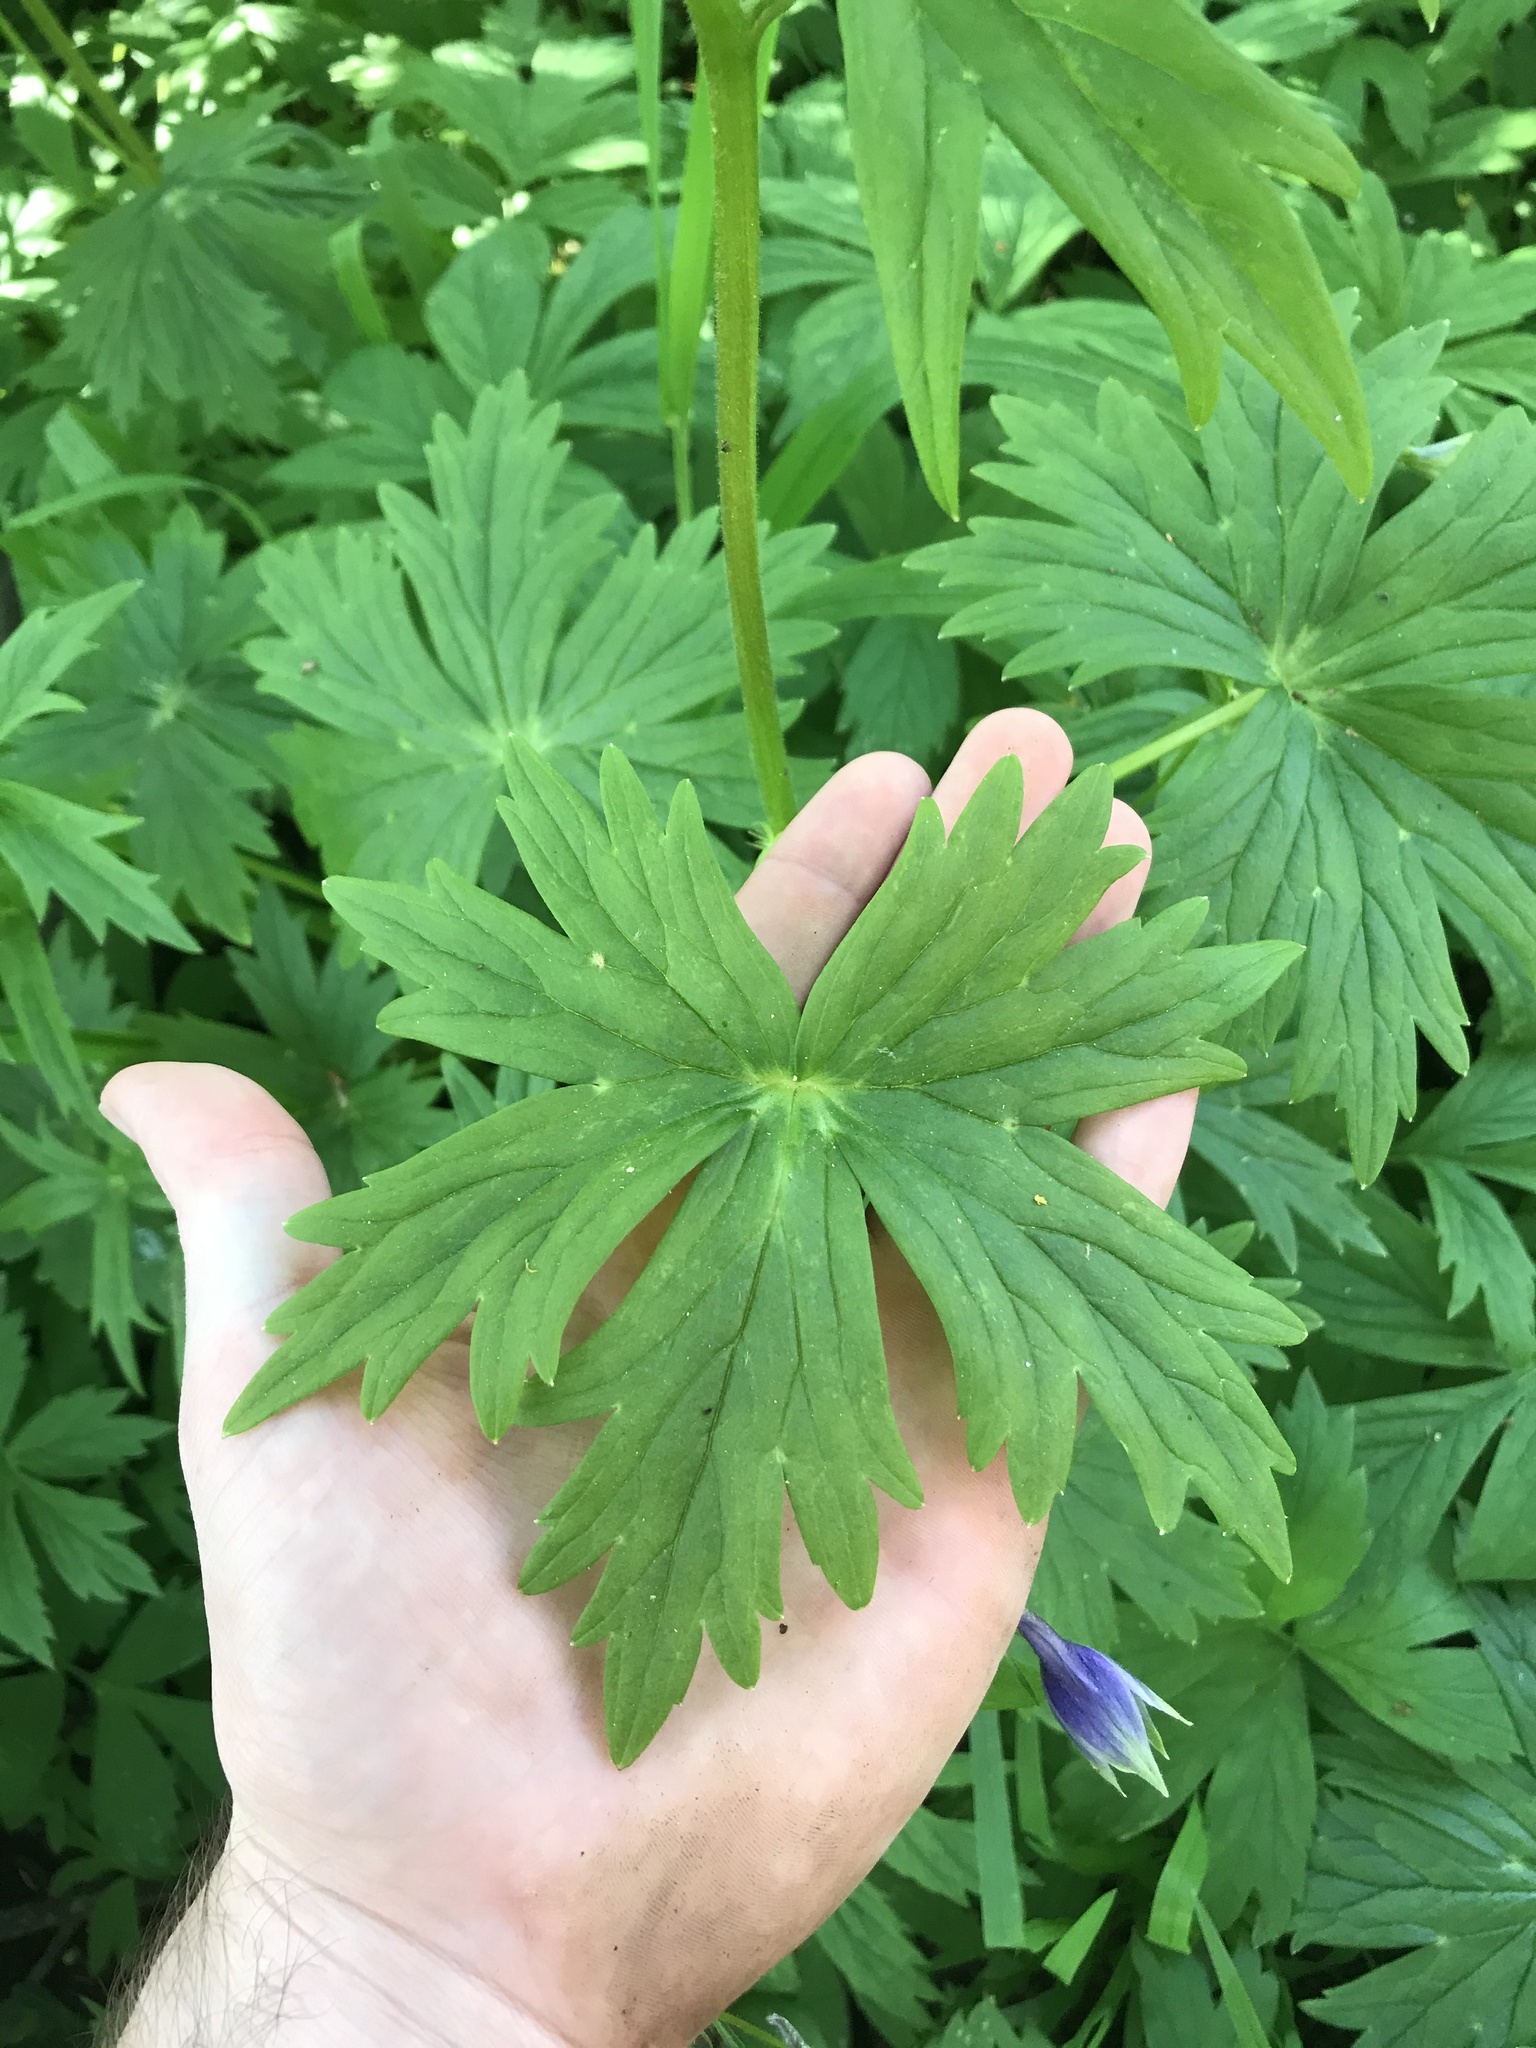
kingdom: Plantae
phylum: Tracheophyta
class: Magnoliopsida
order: Ranunculales
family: Ranunculaceae
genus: Delphinium
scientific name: Delphinium trolliifolium
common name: Cow-poison
